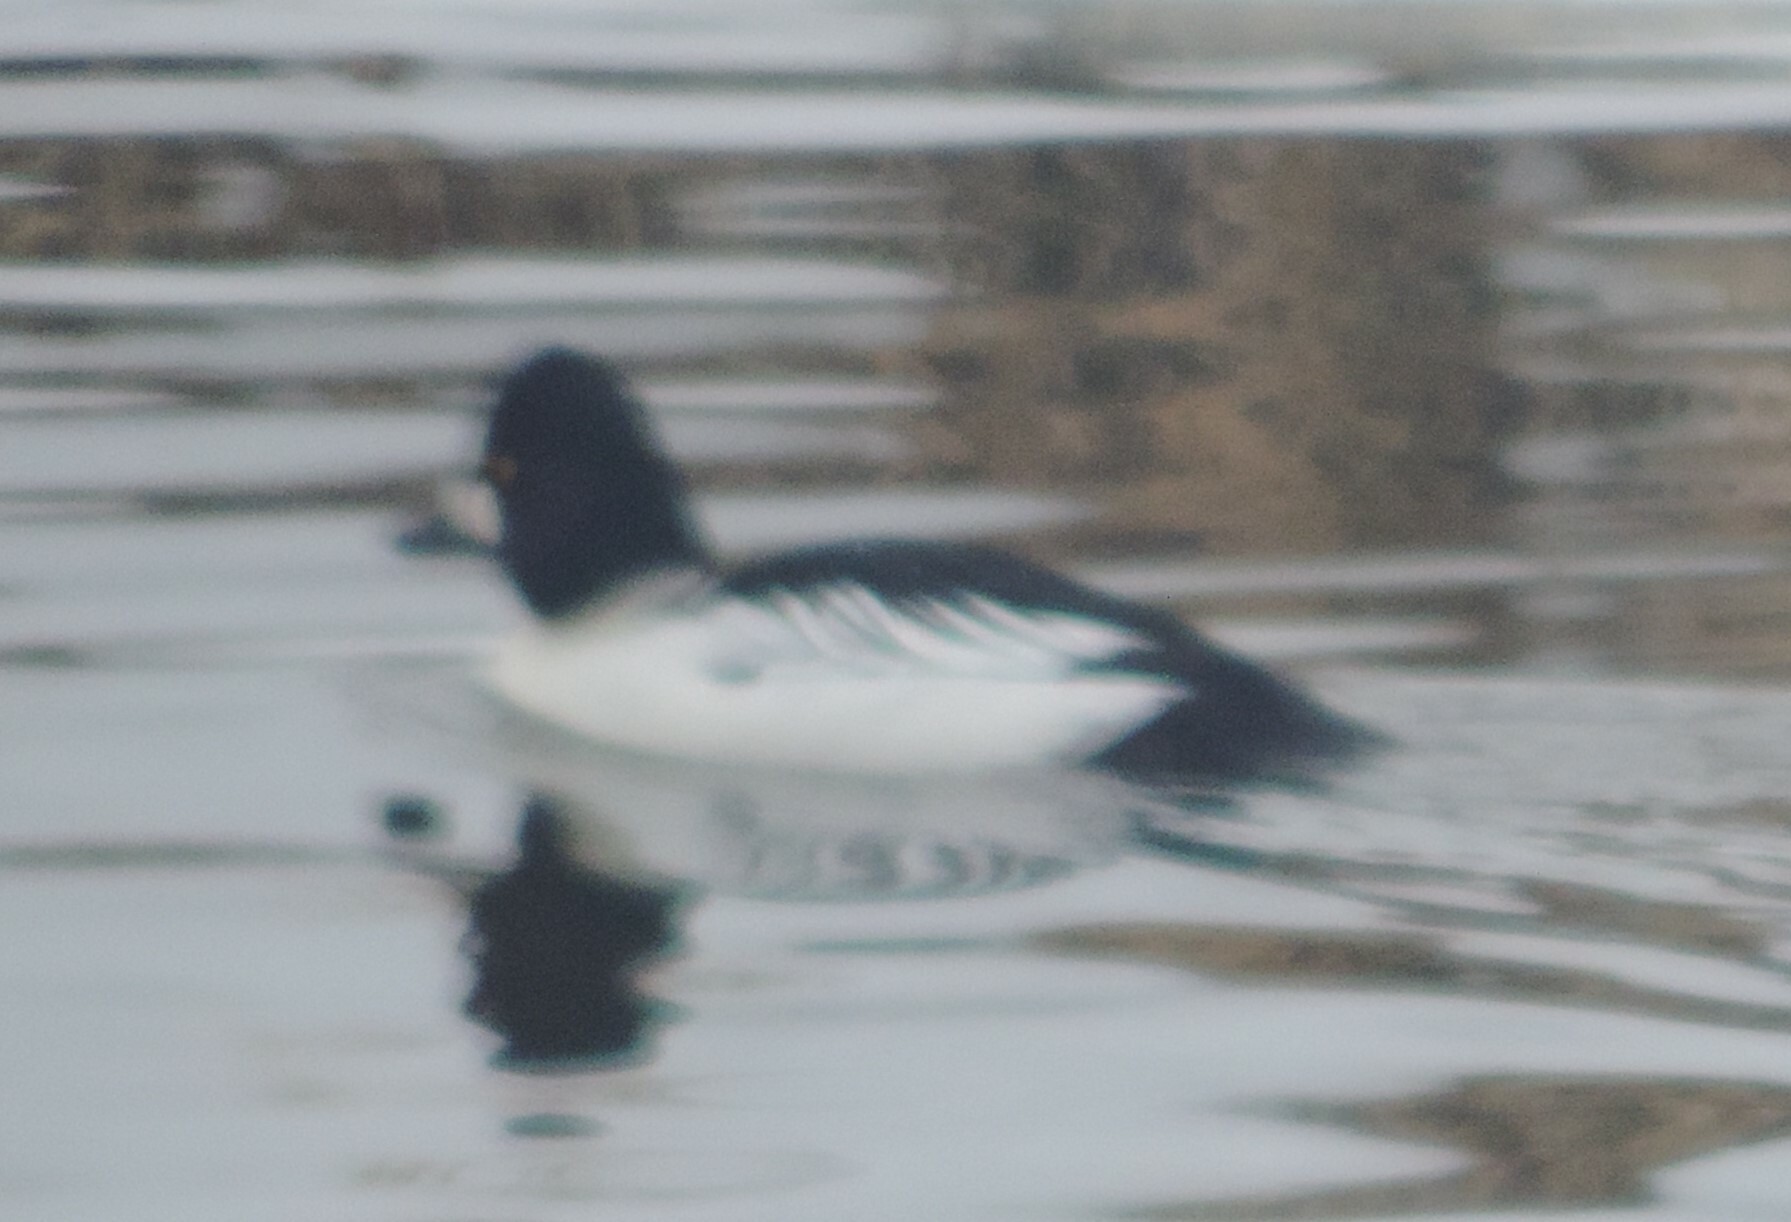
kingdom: Animalia
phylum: Chordata
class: Aves
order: Anseriformes
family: Anatidae
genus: Bucephala
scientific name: Bucephala clangula
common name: Common goldeneye
